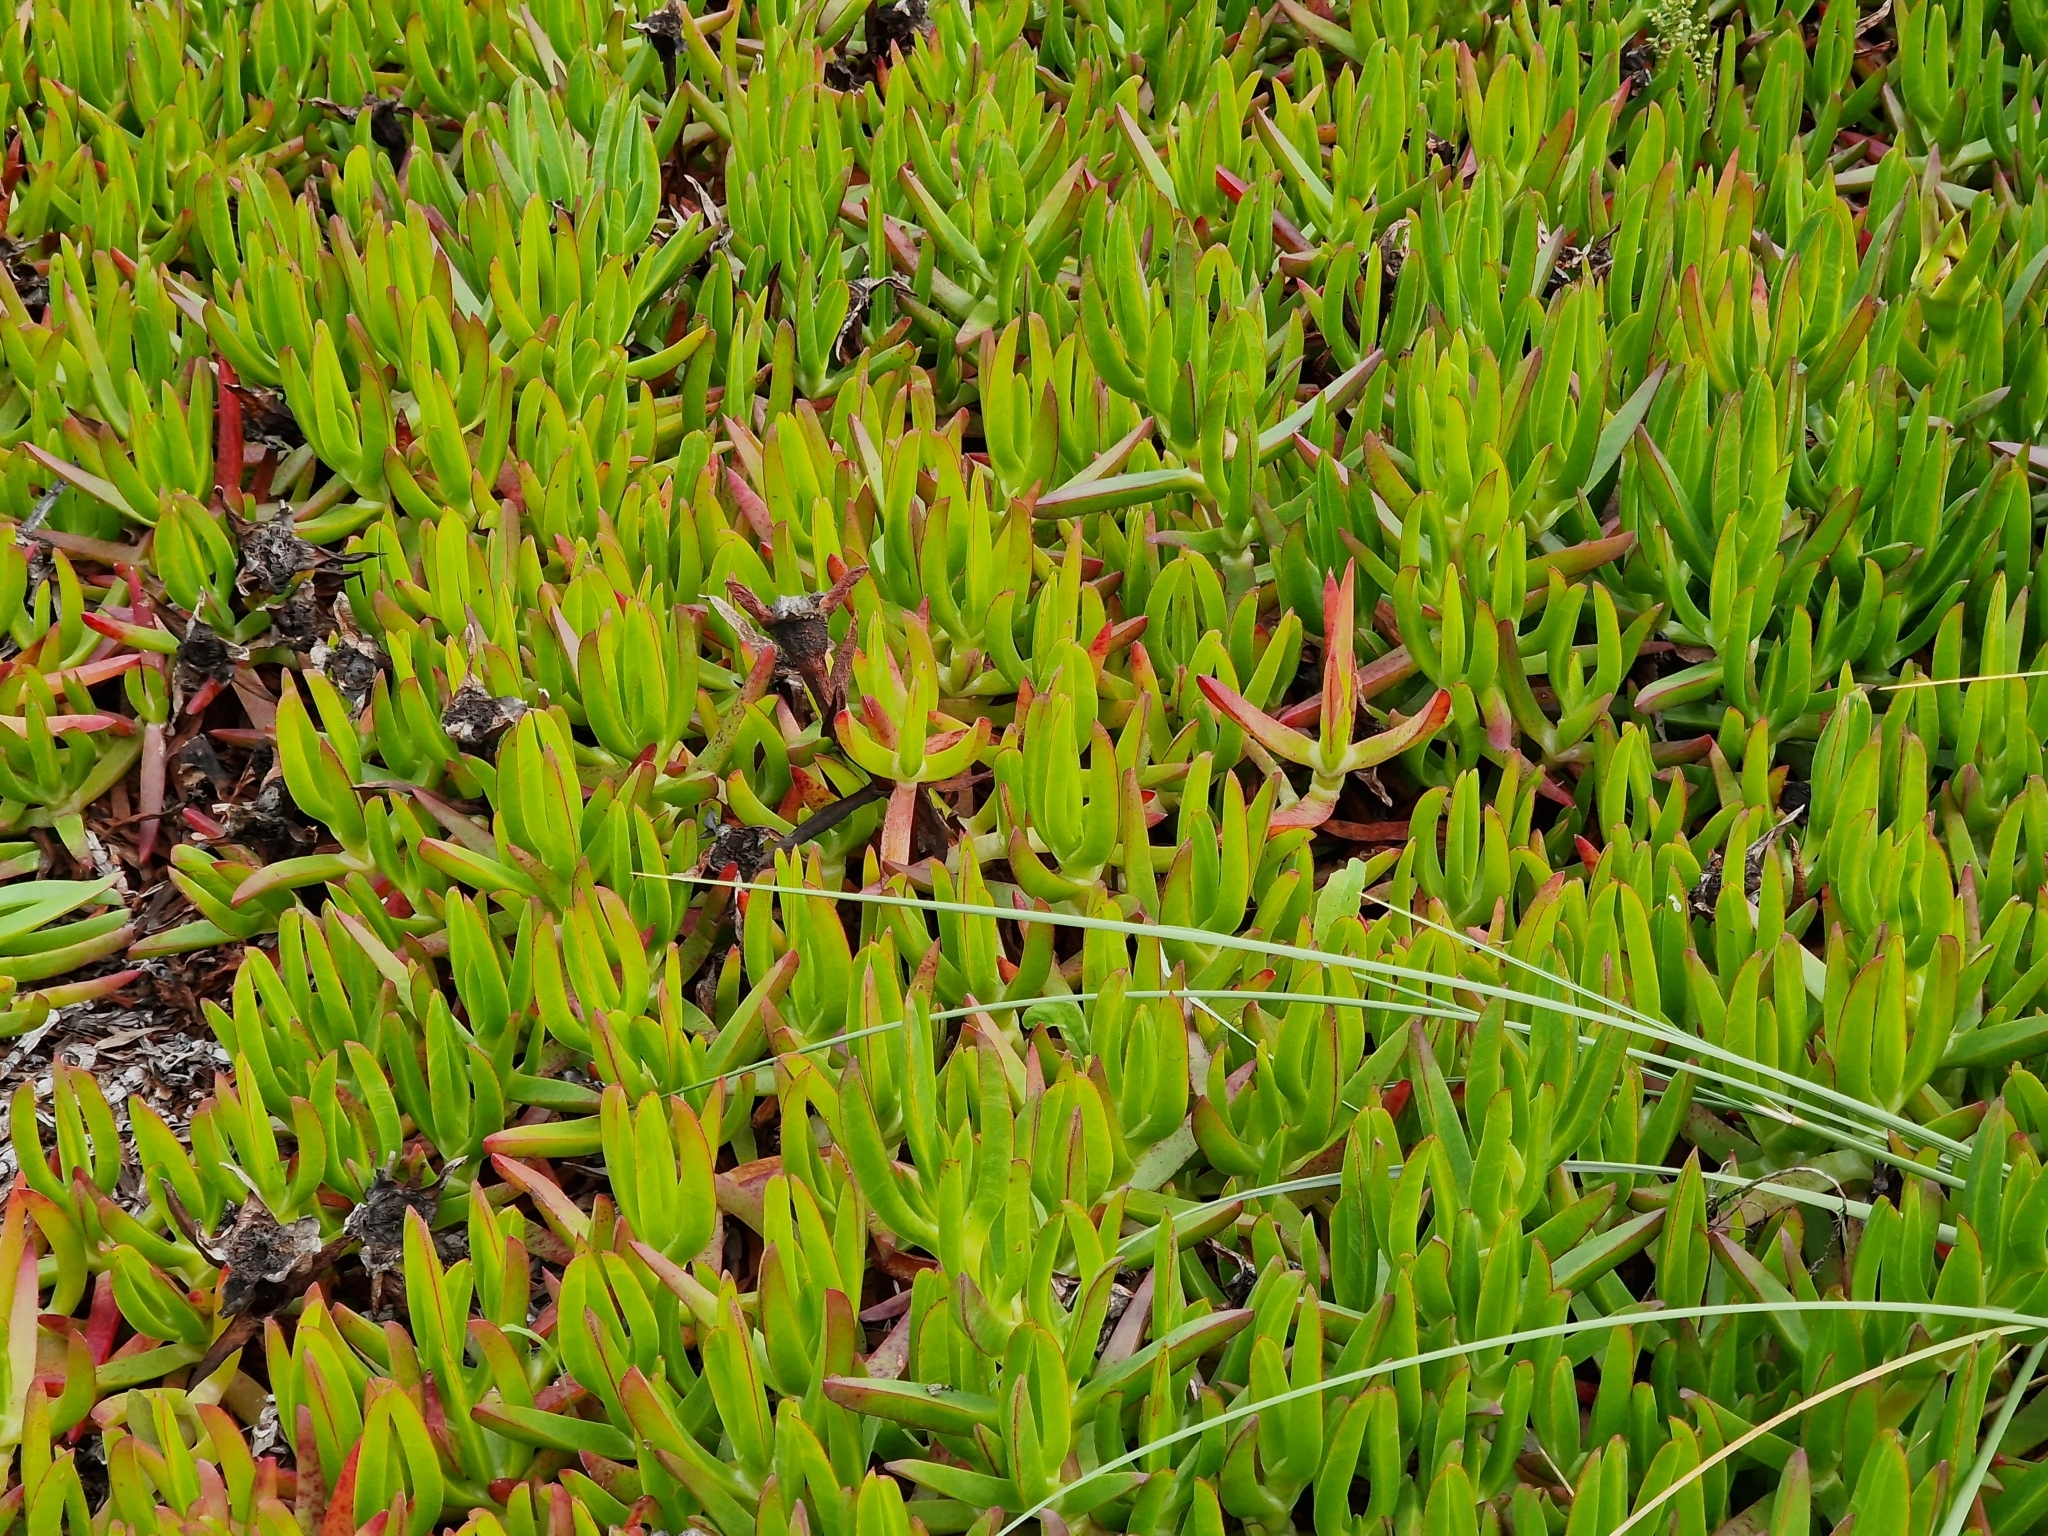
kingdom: Plantae
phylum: Tracheophyta
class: Magnoliopsida
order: Caryophyllales
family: Aizoaceae
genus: Carpobrotus
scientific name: Carpobrotus edulis
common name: Hottentot-fig
